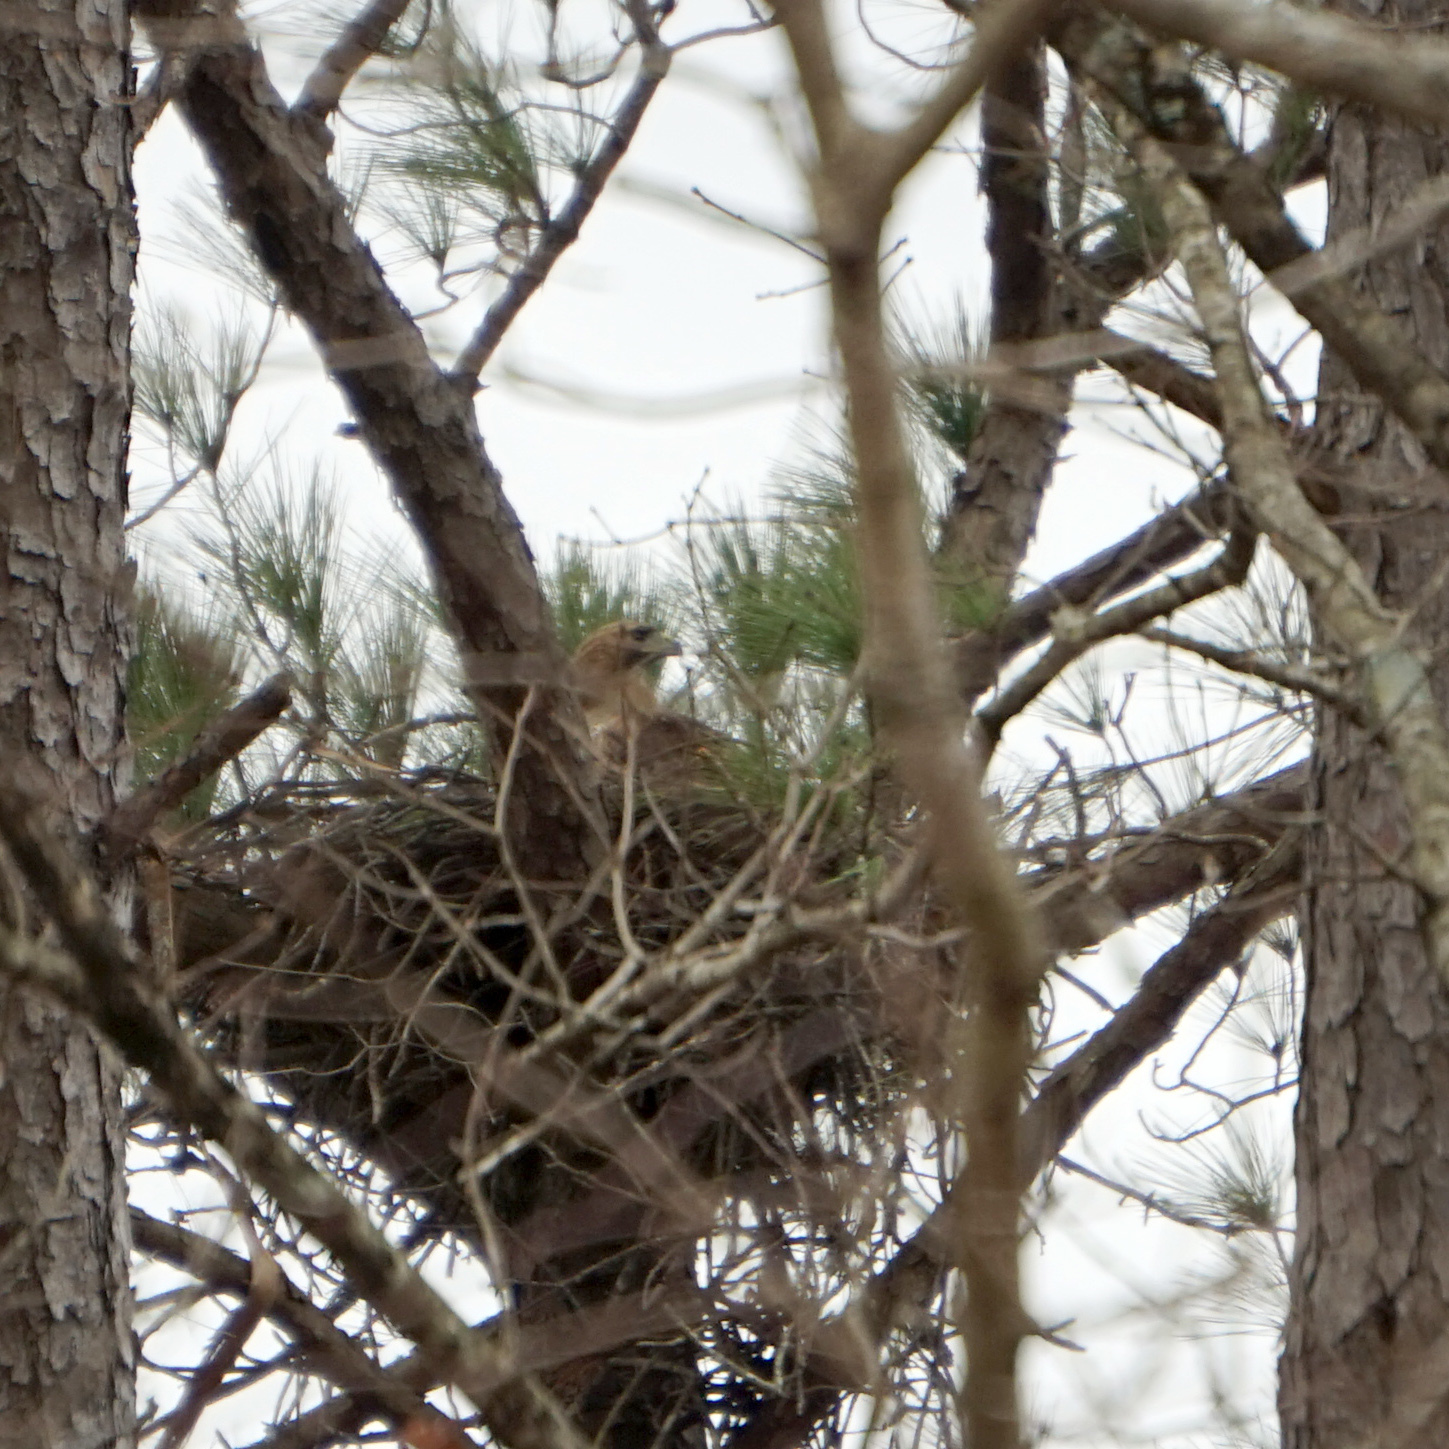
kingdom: Animalia
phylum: Chordata
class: Aves
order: Accipitriformes
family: Accipitridae
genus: Buteo
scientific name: Buteo jamaicensis
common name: Red-tailed hawk
